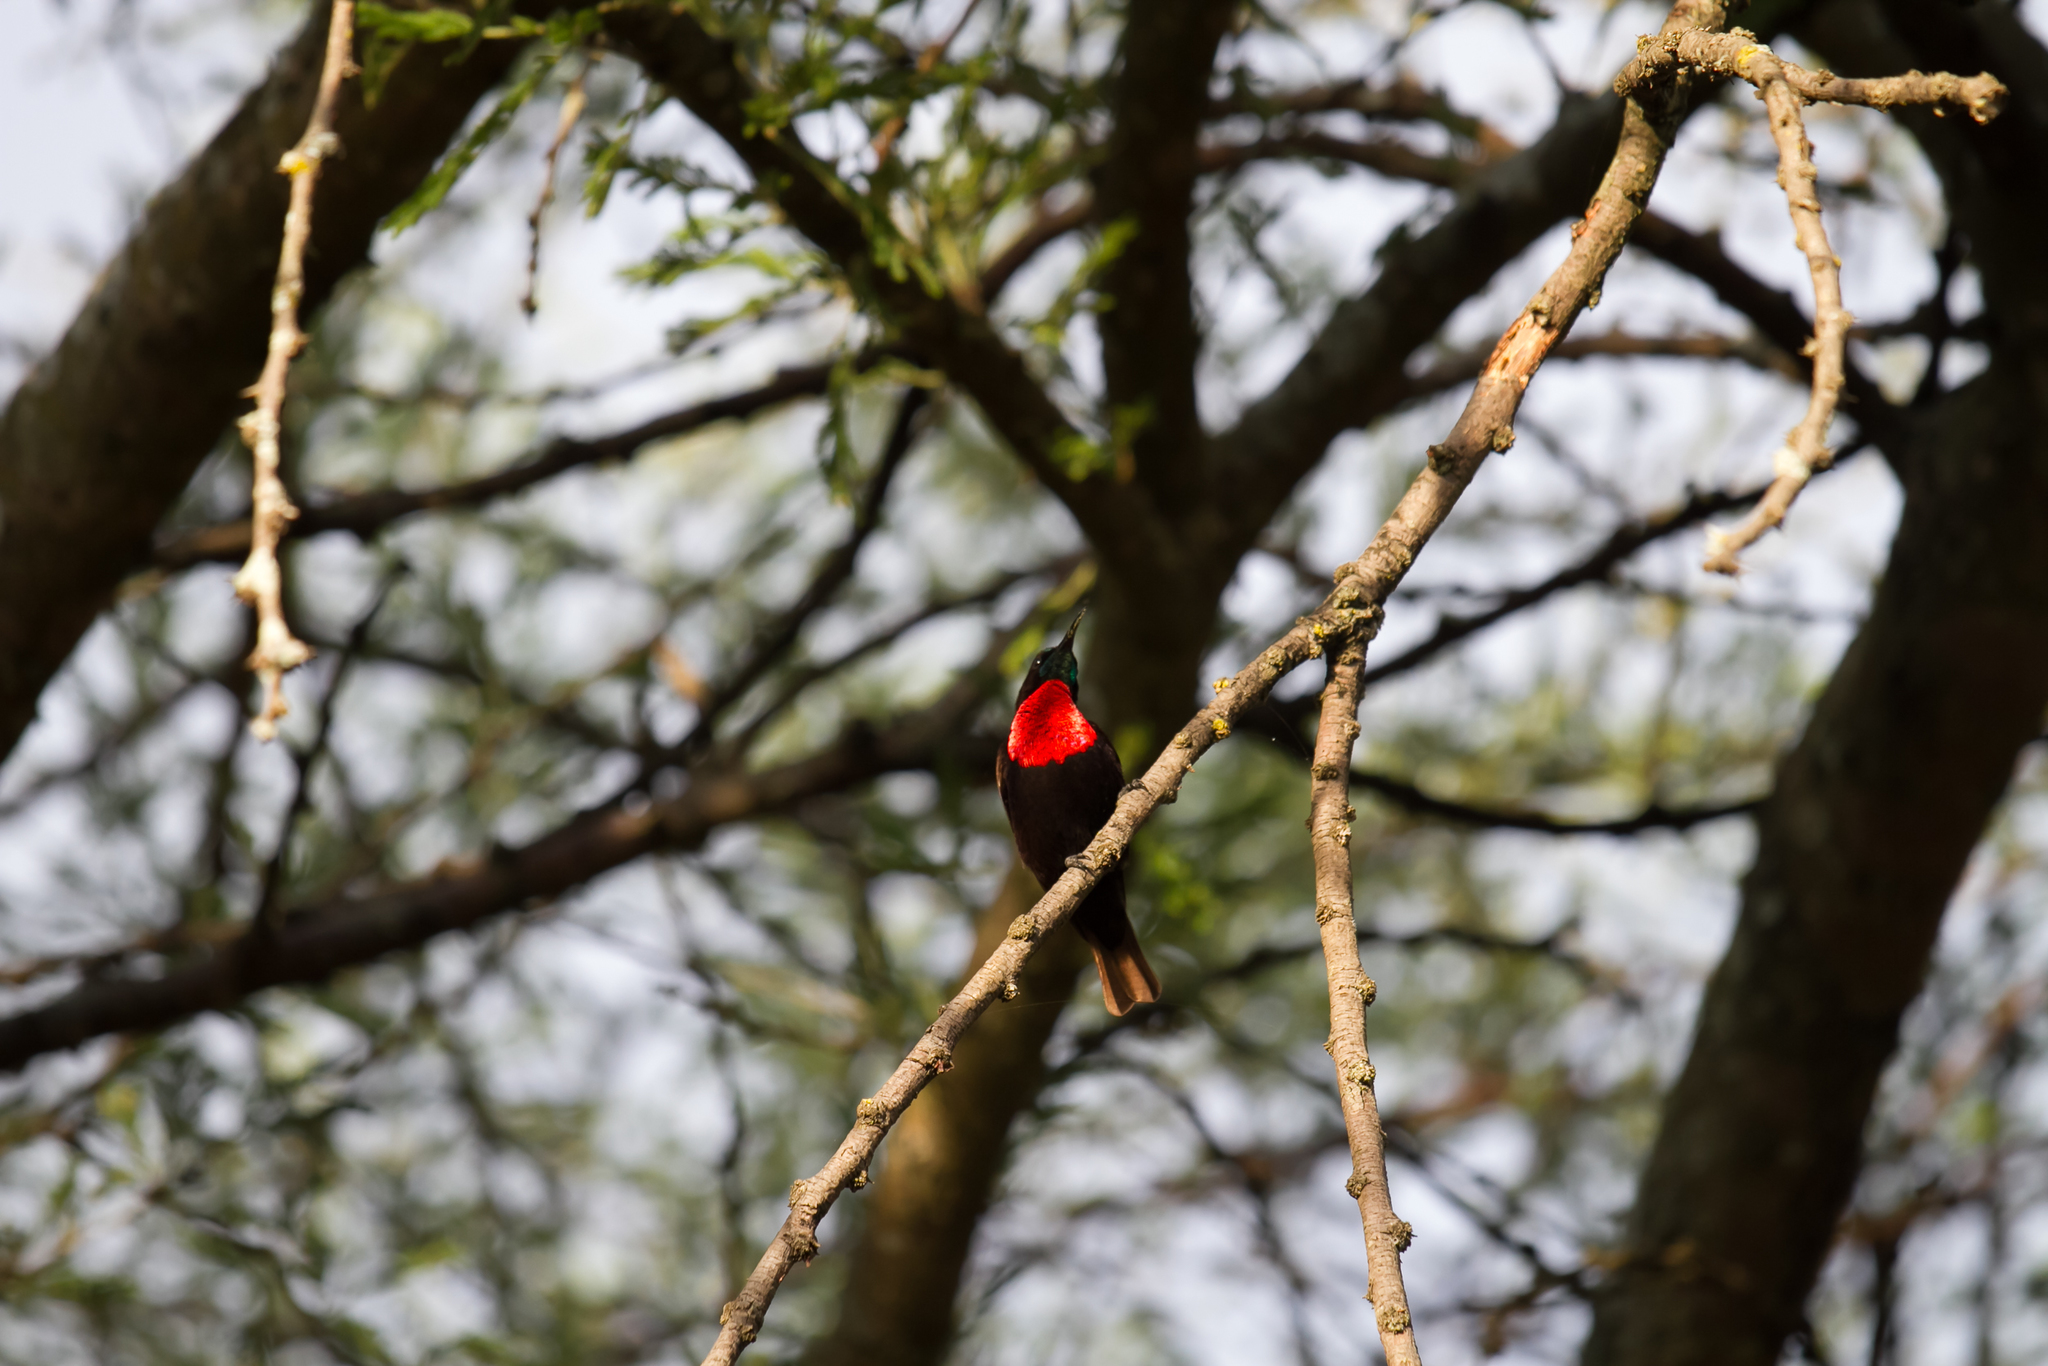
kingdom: Animalia
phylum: Chordata
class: Aves
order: Passeriformes
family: Nectariniidae
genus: Chalcomitra
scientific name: Chalcomitra senegalensis
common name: Scarlet-chested sunbird
